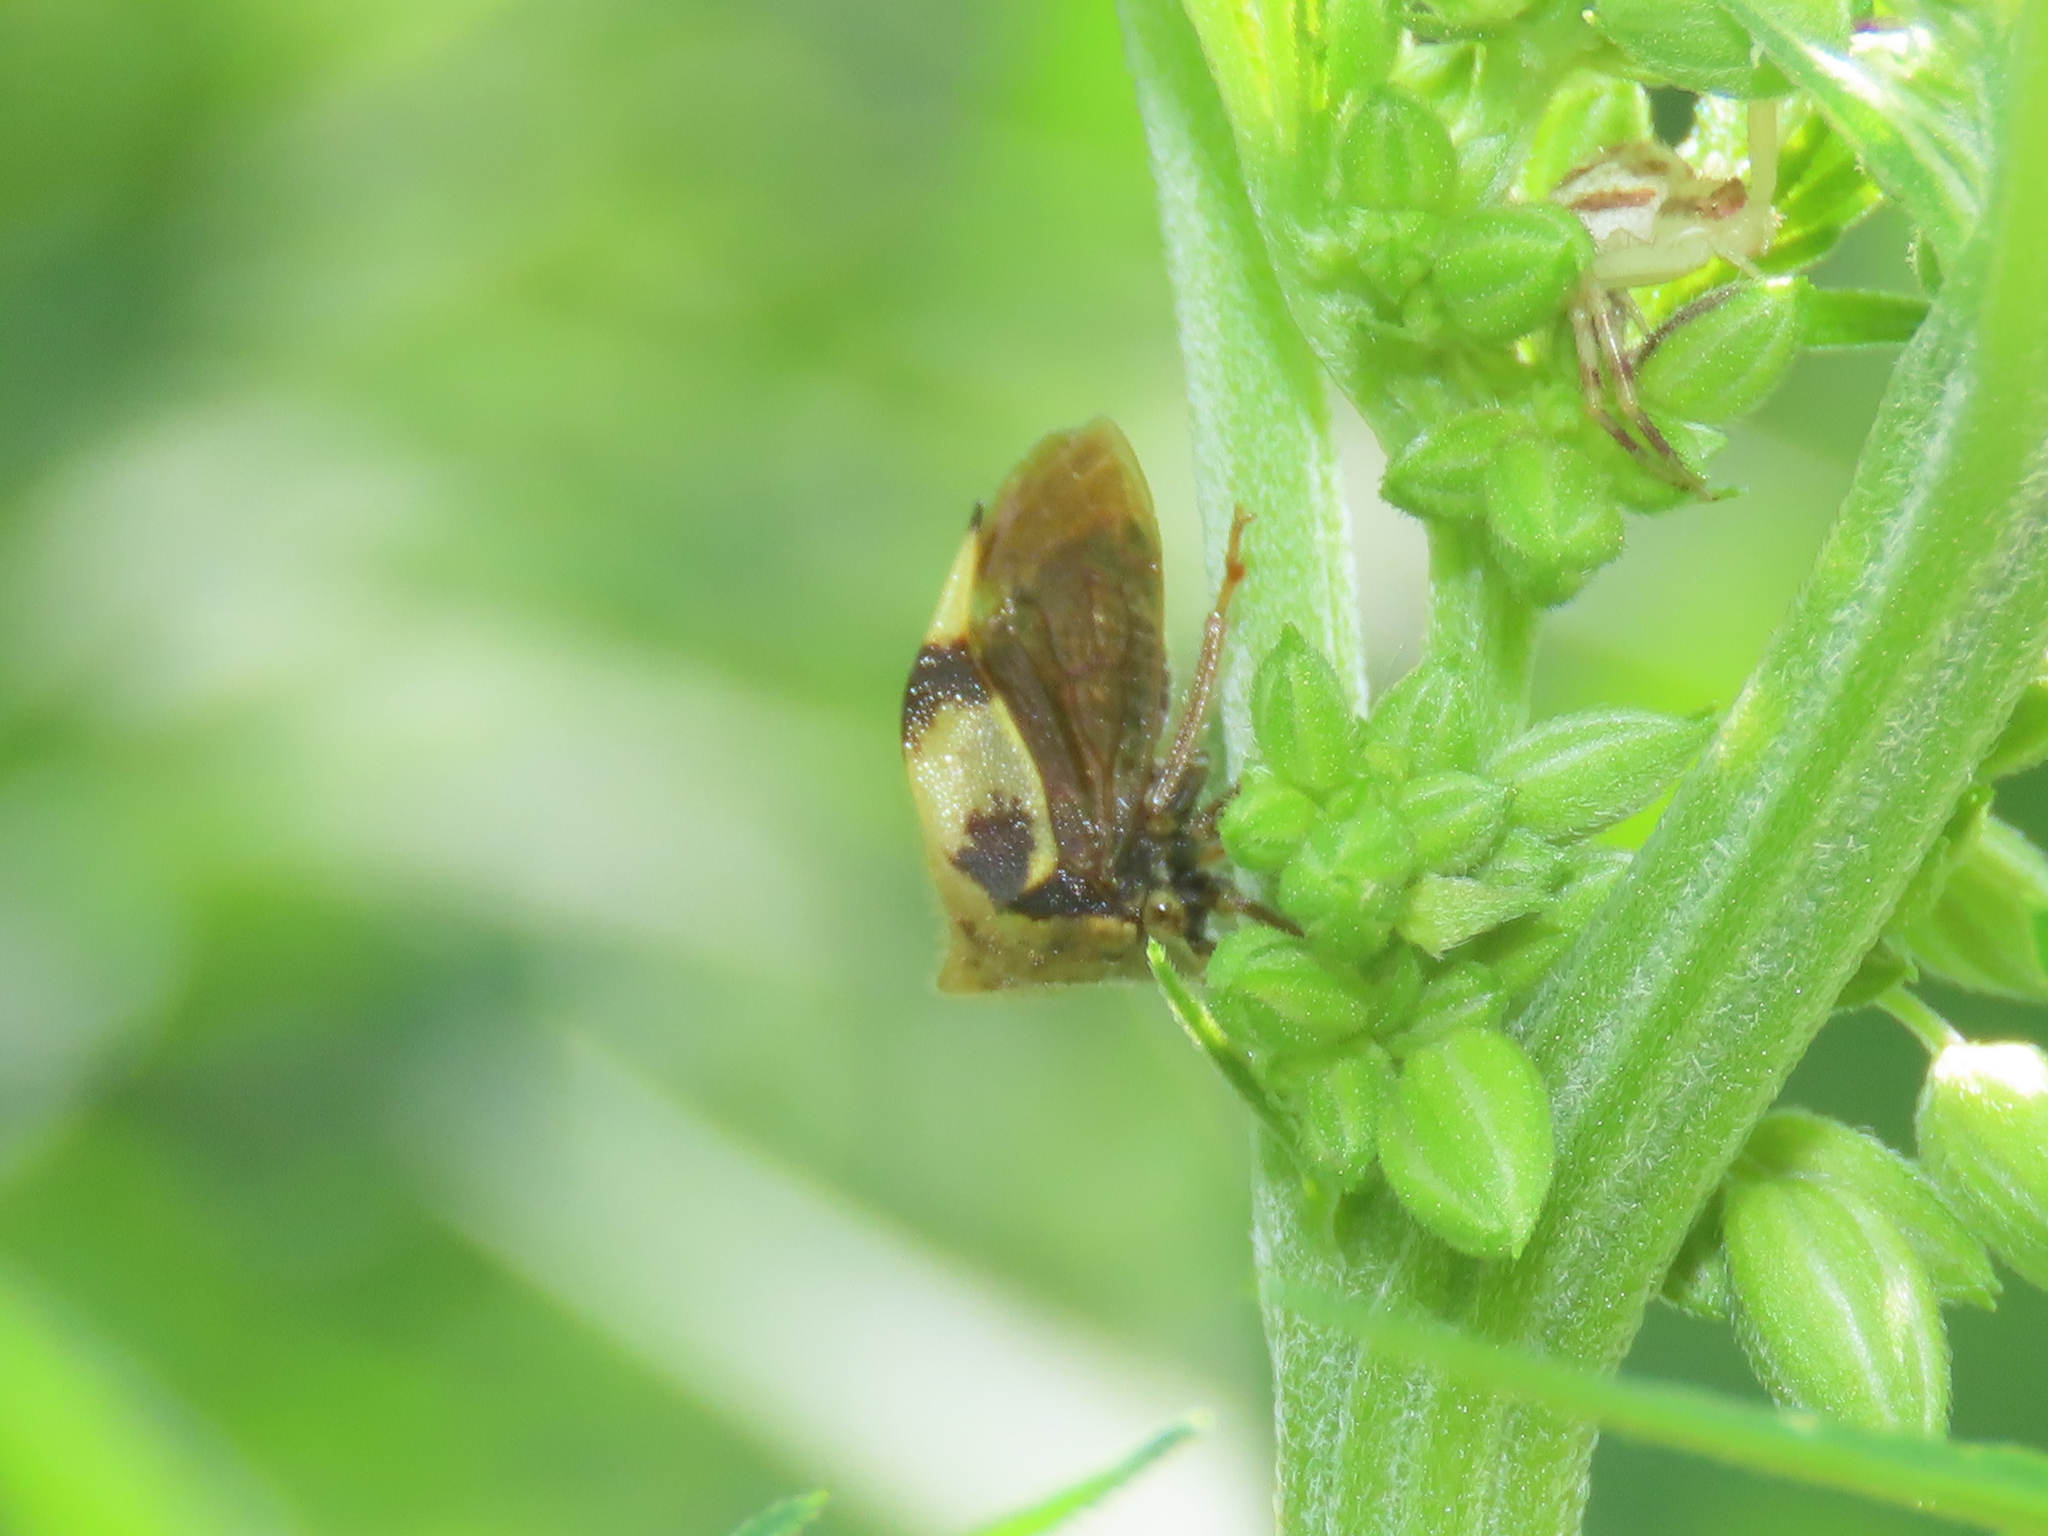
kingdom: Animalia
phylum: Arthropoda
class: Insecta
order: Hemiptera
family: Membracidae
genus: Stictocephala
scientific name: Stictocephala diceros
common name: Two-horned treehopper
